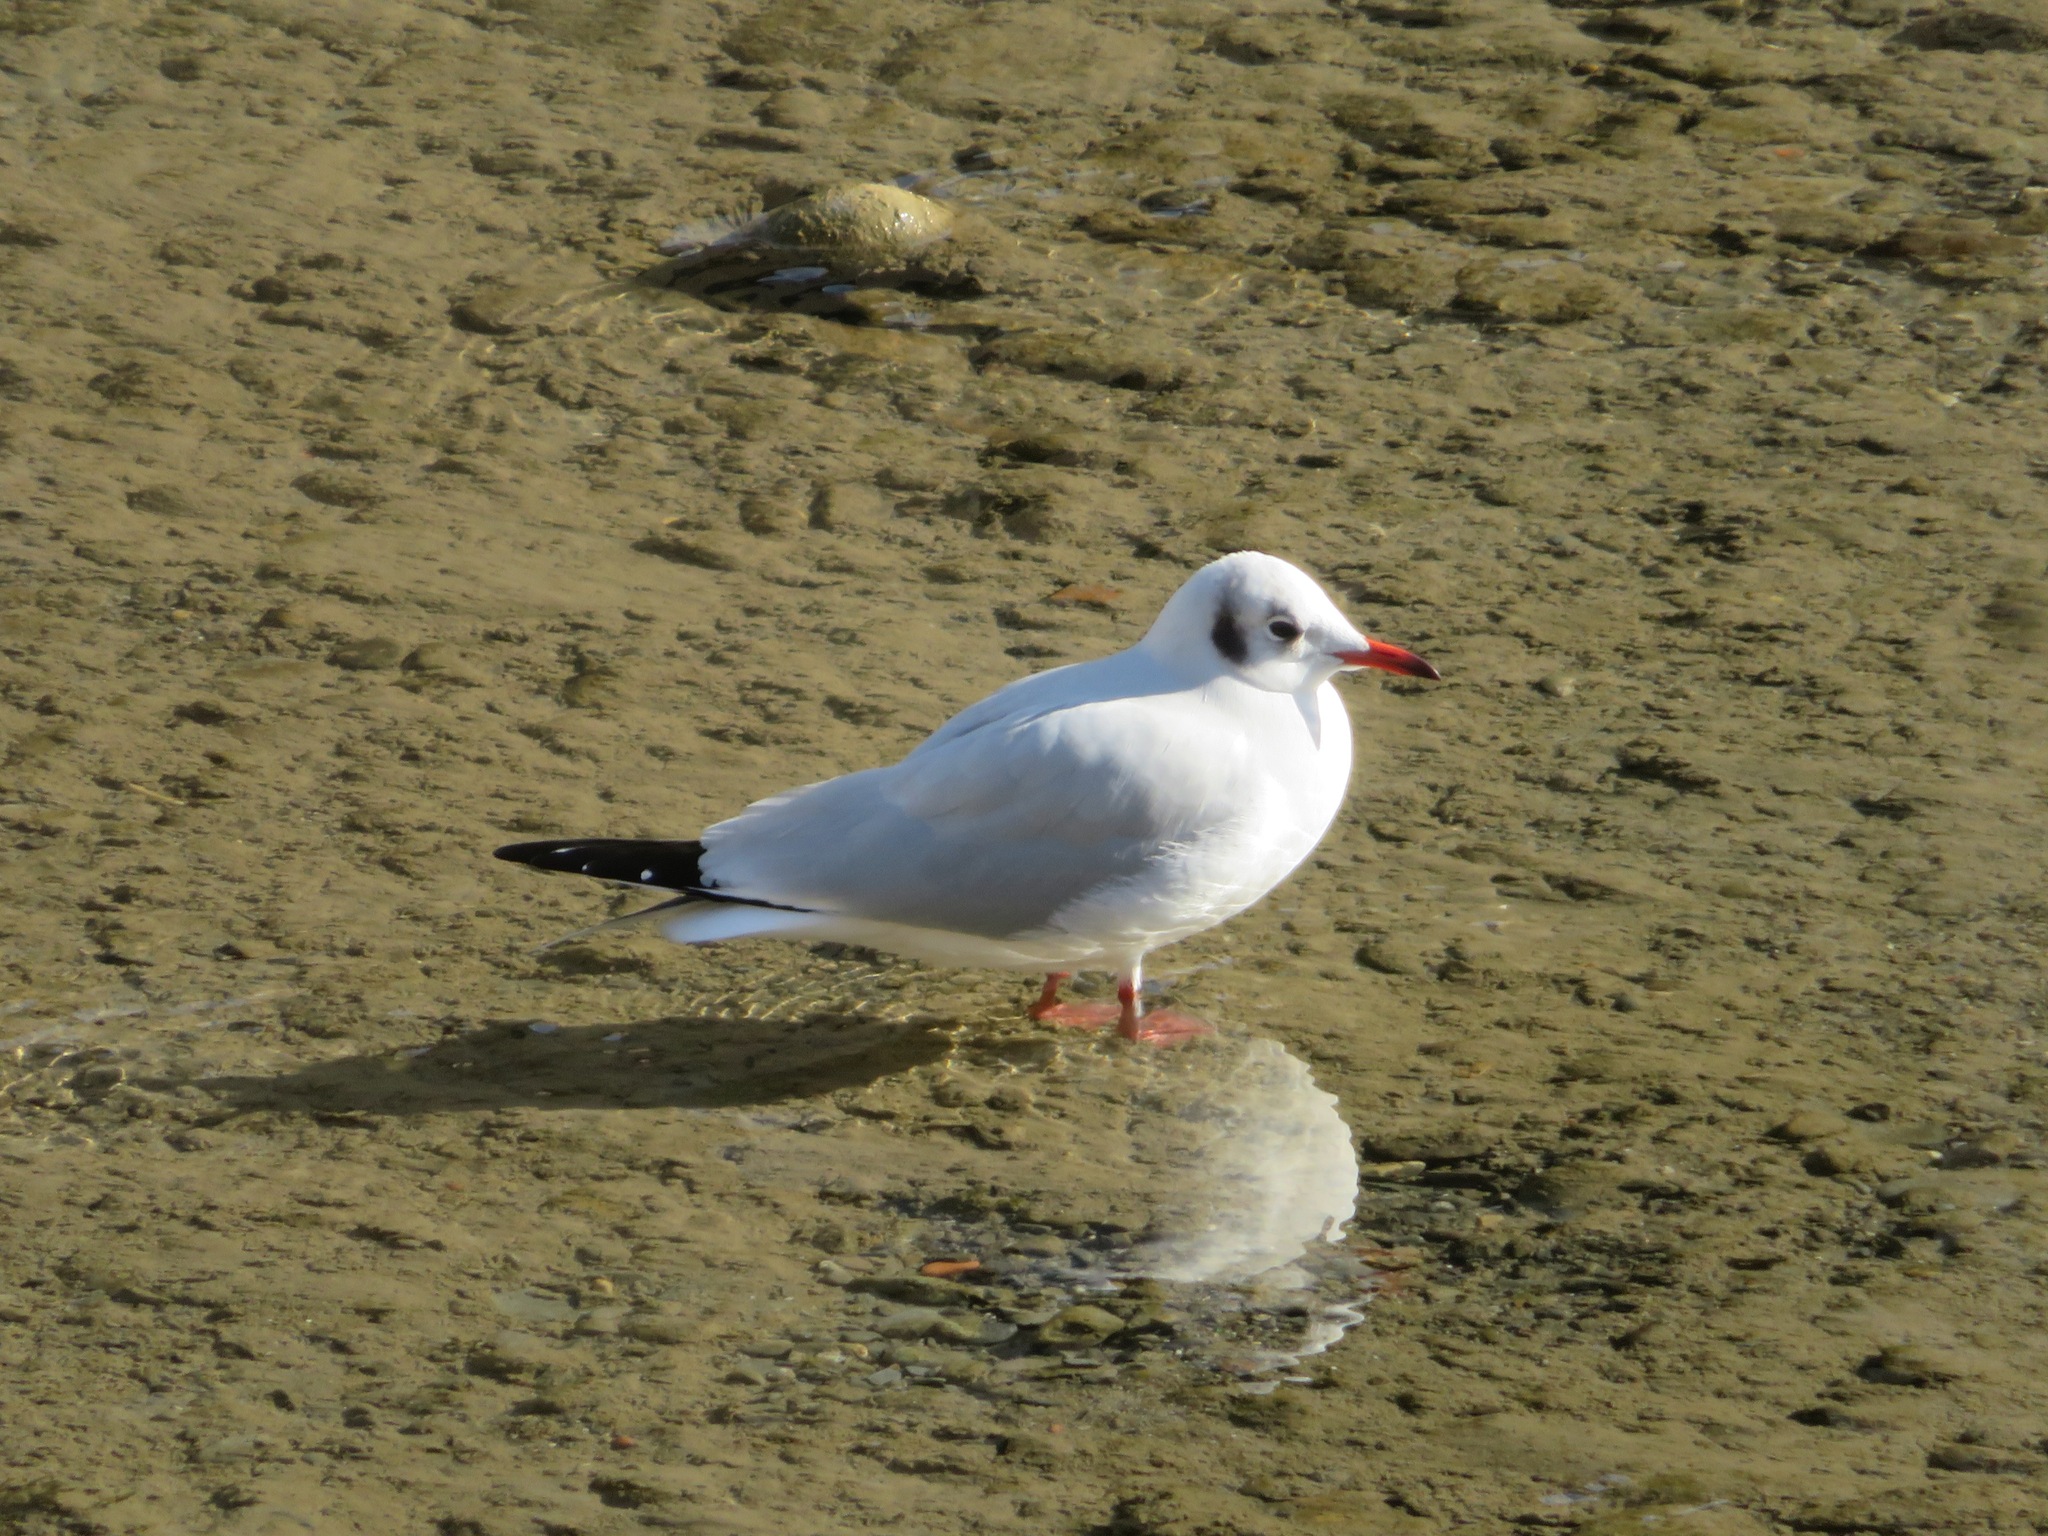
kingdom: Animalia
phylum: Chordata
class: Aves
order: Charadriiformes
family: Laridae
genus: Chroicocephalus
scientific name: Chroicocephalus ridibundus
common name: Black-headed gull
